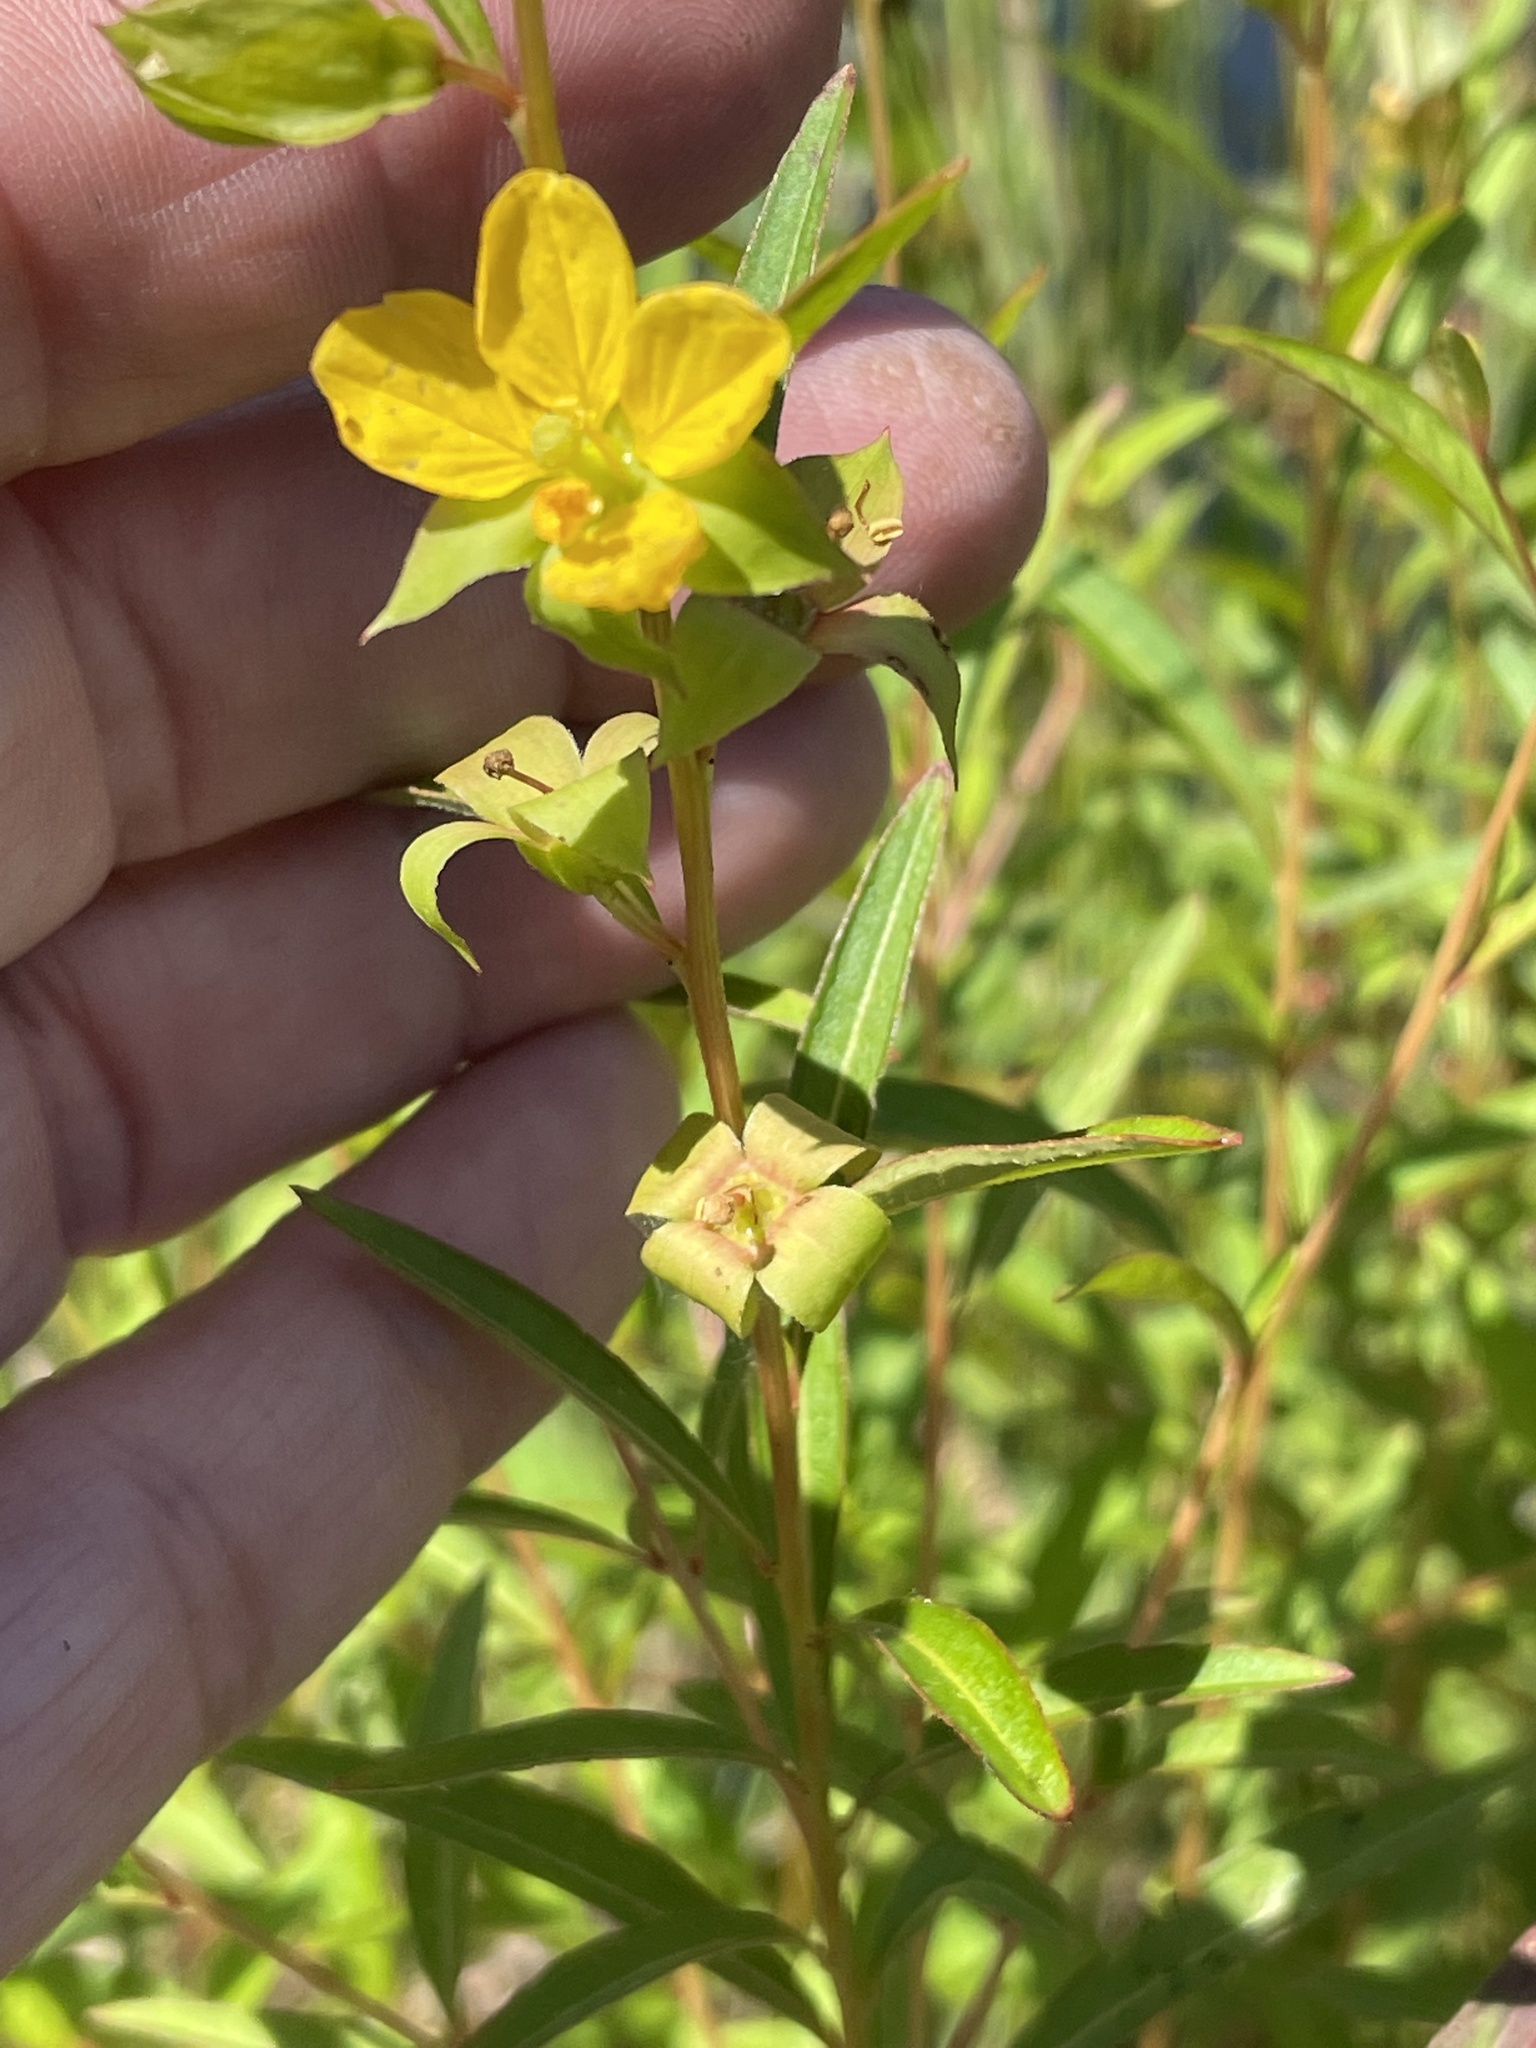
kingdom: Plantae
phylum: Tracheophyta
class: Magnoliopsida
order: Myrtales
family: Onagraceae
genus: Ludwigia
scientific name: Ludwigia alternifolia
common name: Rattlebox
